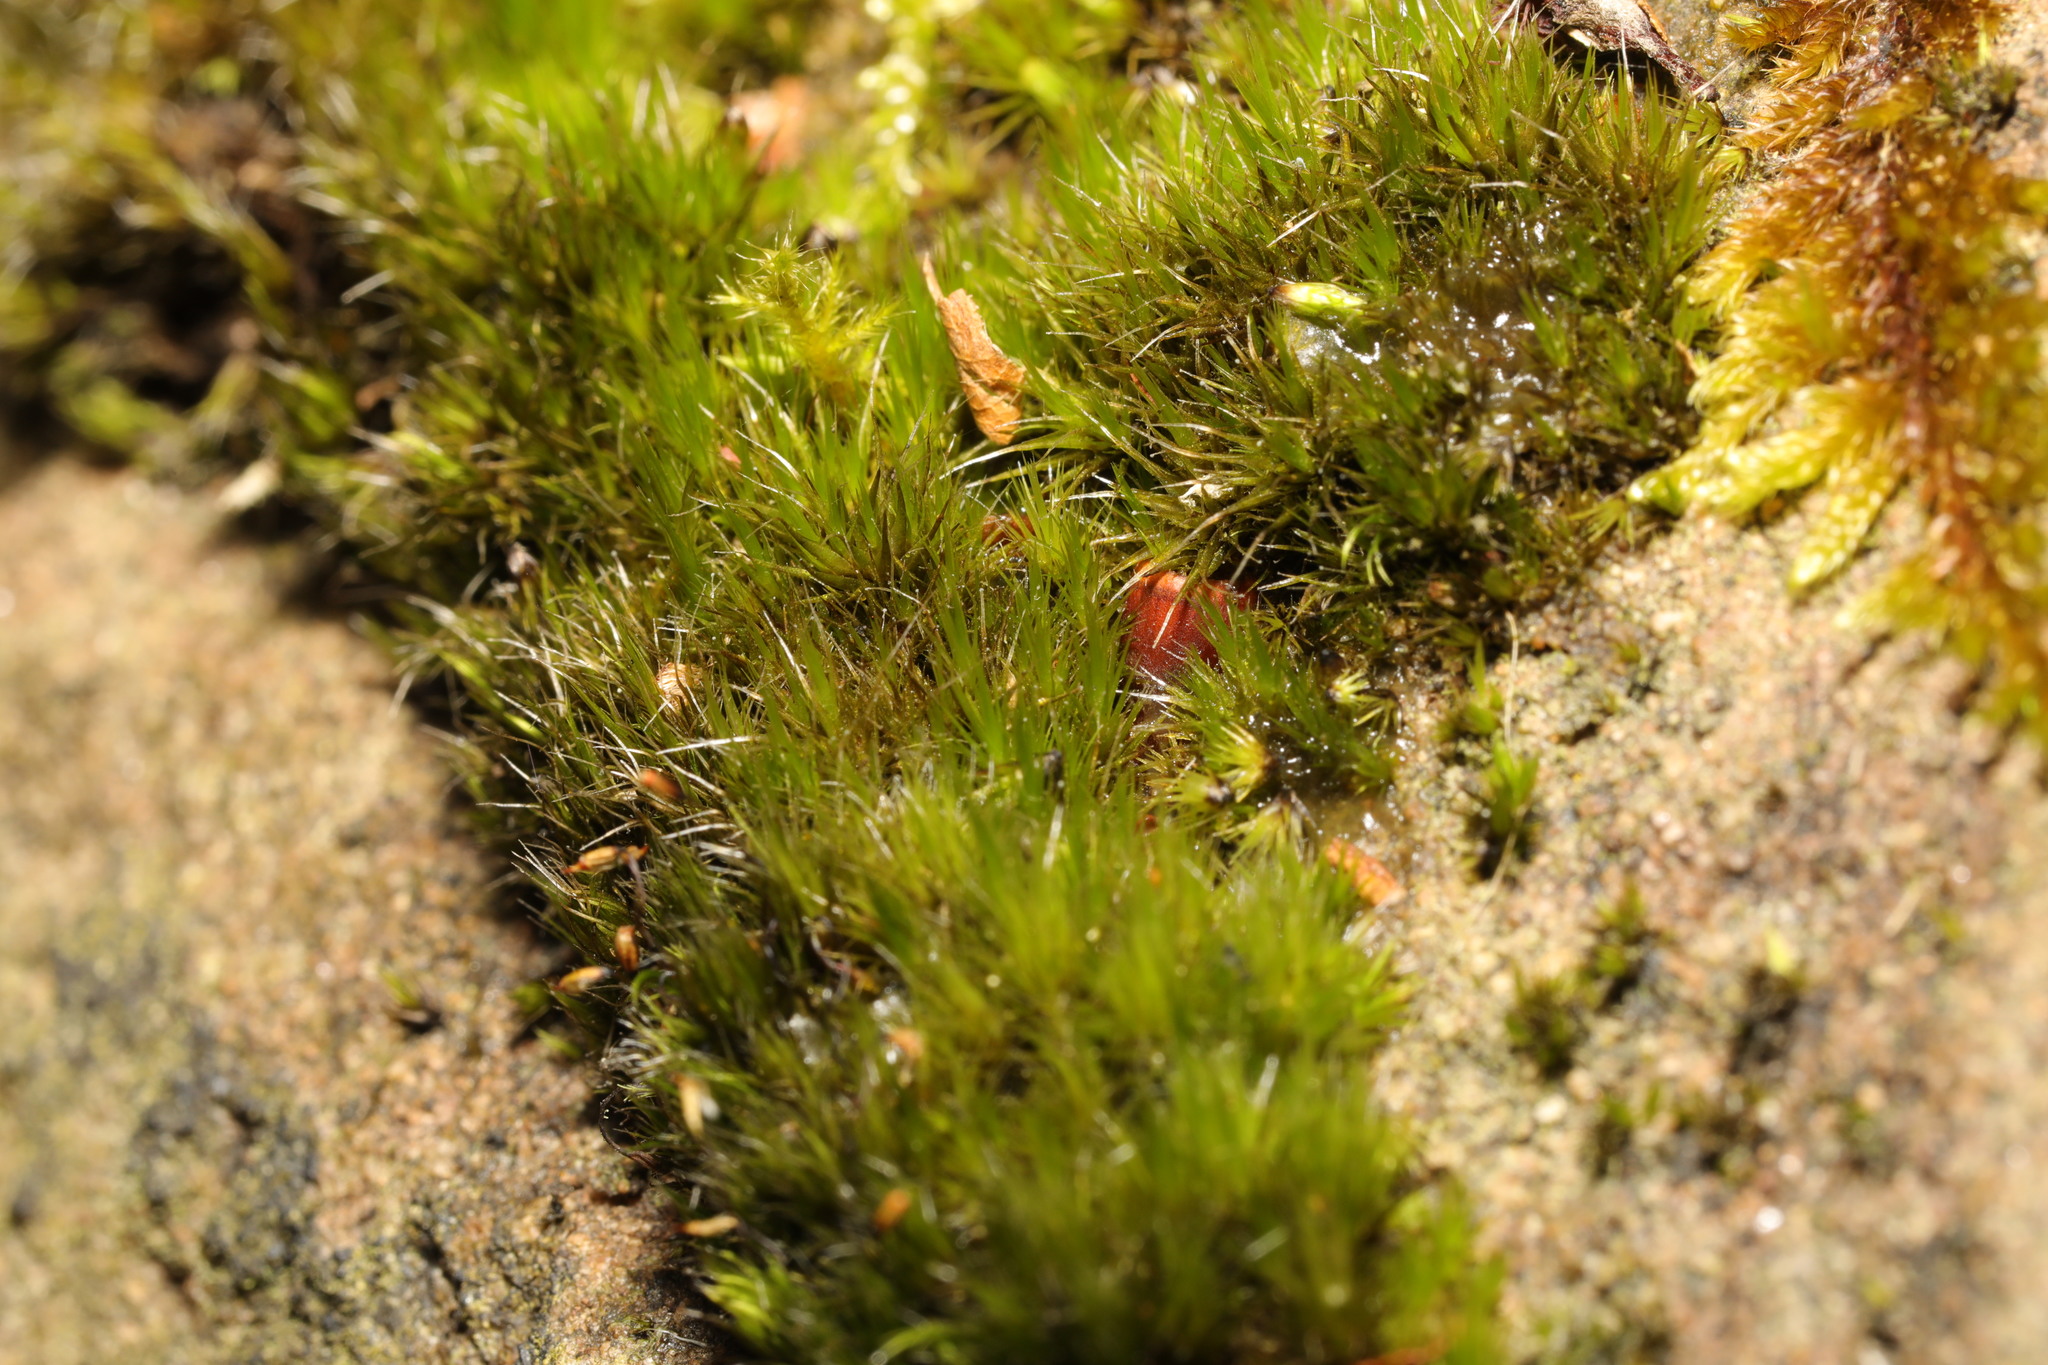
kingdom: Plantae
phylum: Bryophyta
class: Bryopsida
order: Dicranales
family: Leucobryaceae
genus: Campylopus
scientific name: Campylopus introflexus
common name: Heath star moss
